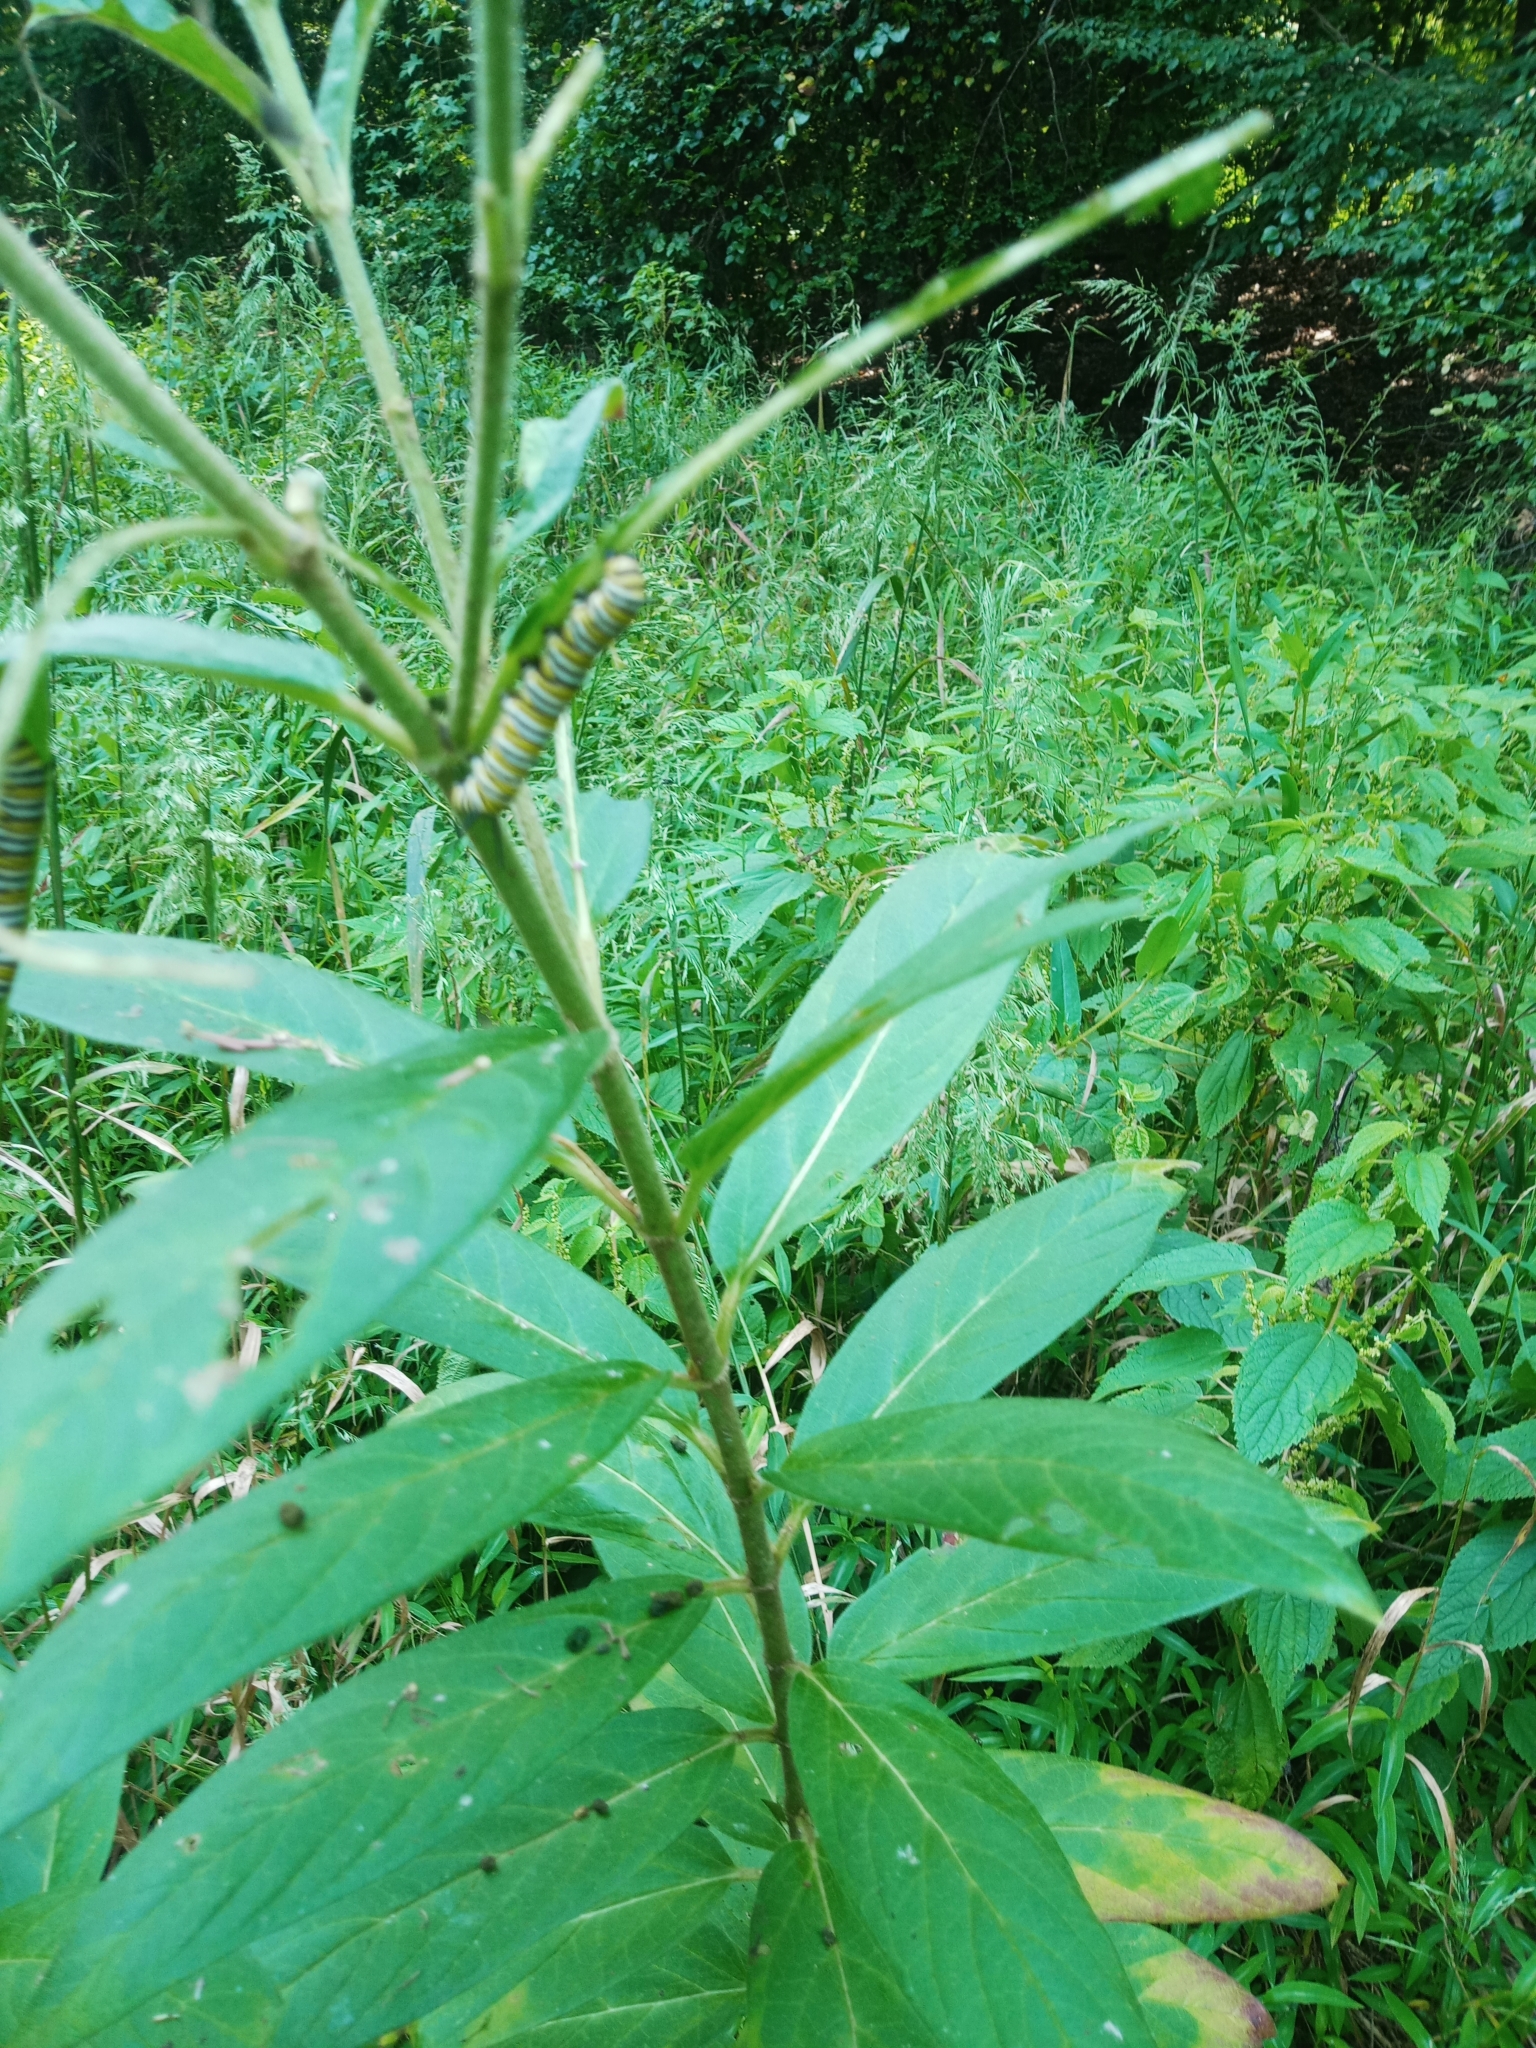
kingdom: Animalia
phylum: Arthropoda
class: Insecta
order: Lepidoptera
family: Nymphalidae
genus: Danaus
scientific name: Danaus plexippus
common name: Monarch
